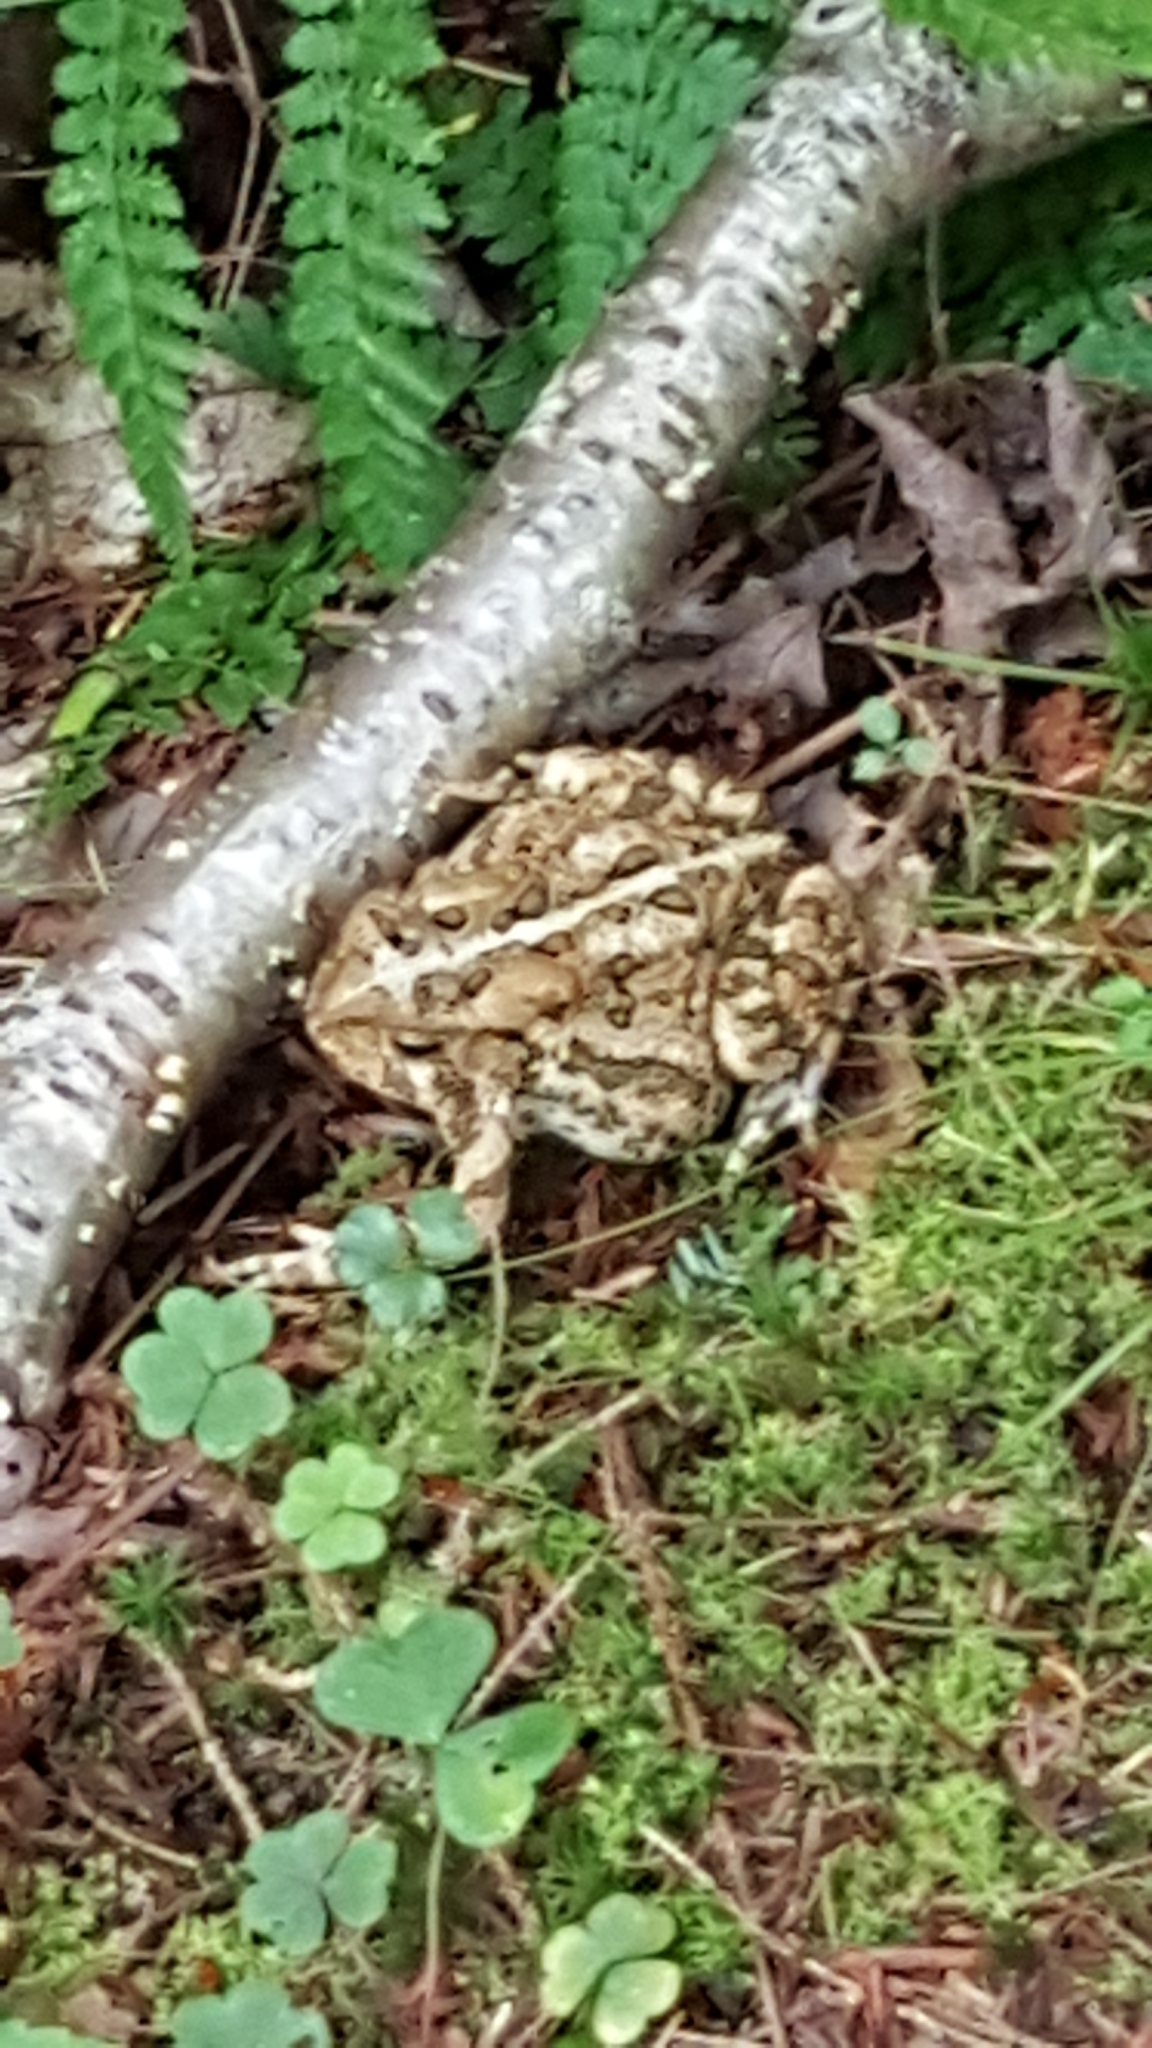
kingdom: Animalia
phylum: Chordata
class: Amphibia
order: Anura
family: Bufonidae
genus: Anaxyrus
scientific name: Anaxyrus americanus
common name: American toad
